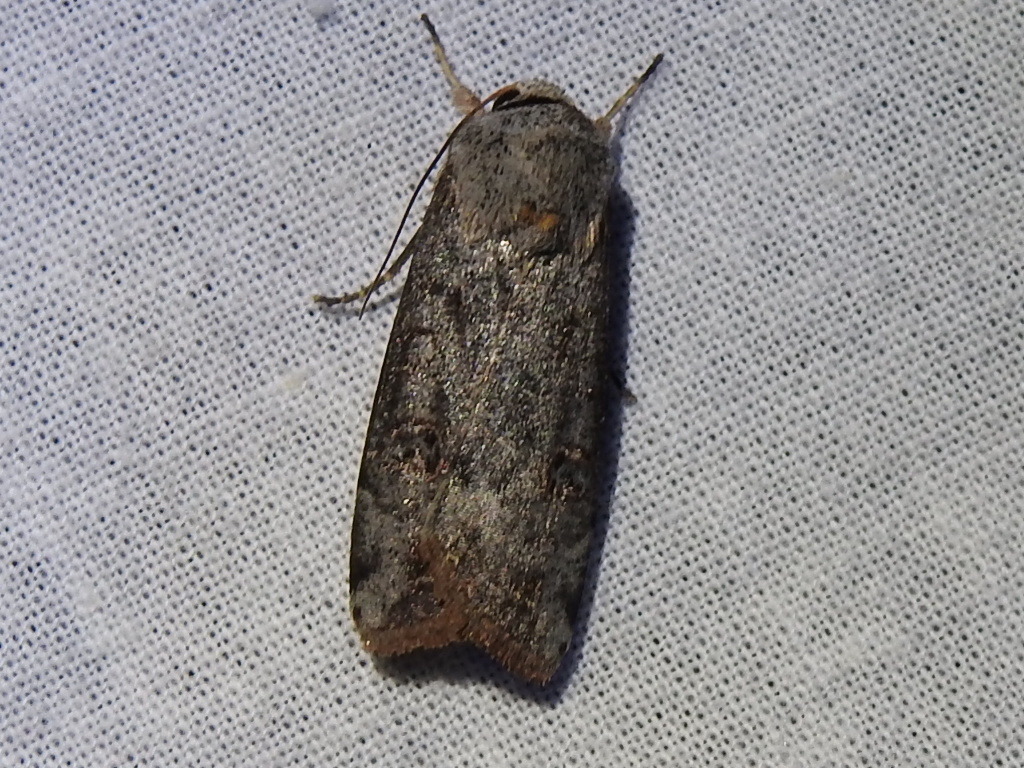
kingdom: Animalia
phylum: Arthropoda
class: Insecta
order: Lepidoptera
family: Noctuidae
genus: Anicla
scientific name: Anicla infecta
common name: Green cutworm
